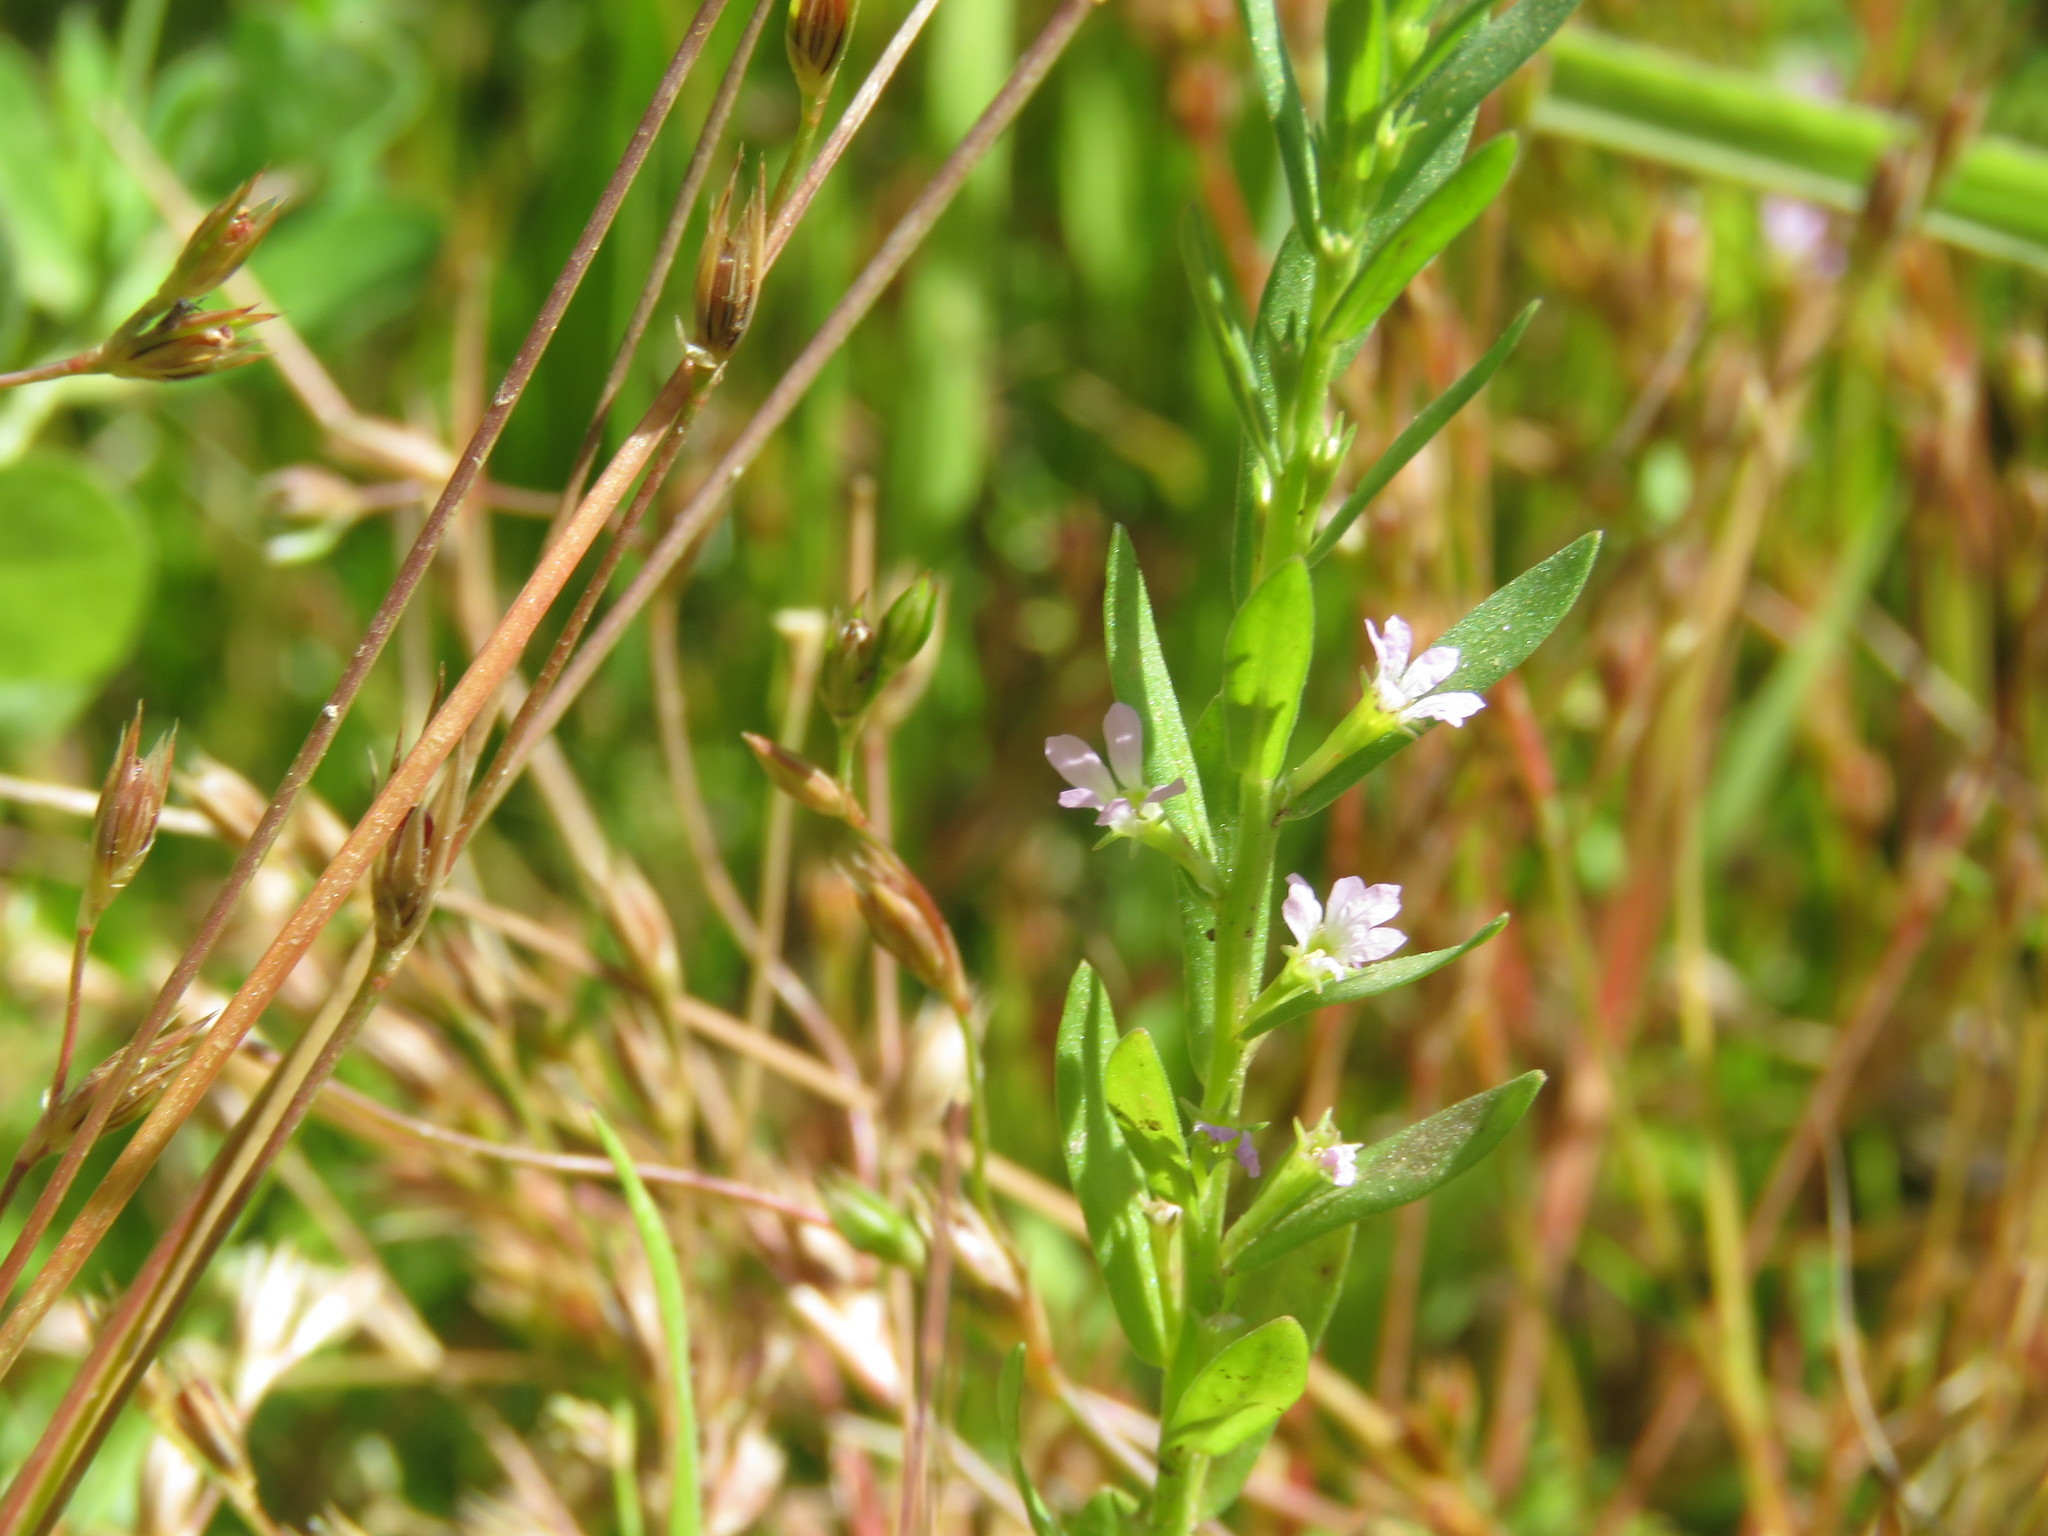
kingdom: Plantae
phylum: Tracheophyta
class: Magnoliopsida
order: Myrtales
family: Lythraceae
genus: Lythrum
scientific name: Lythrum hyssopifolia
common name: Grass-poly
